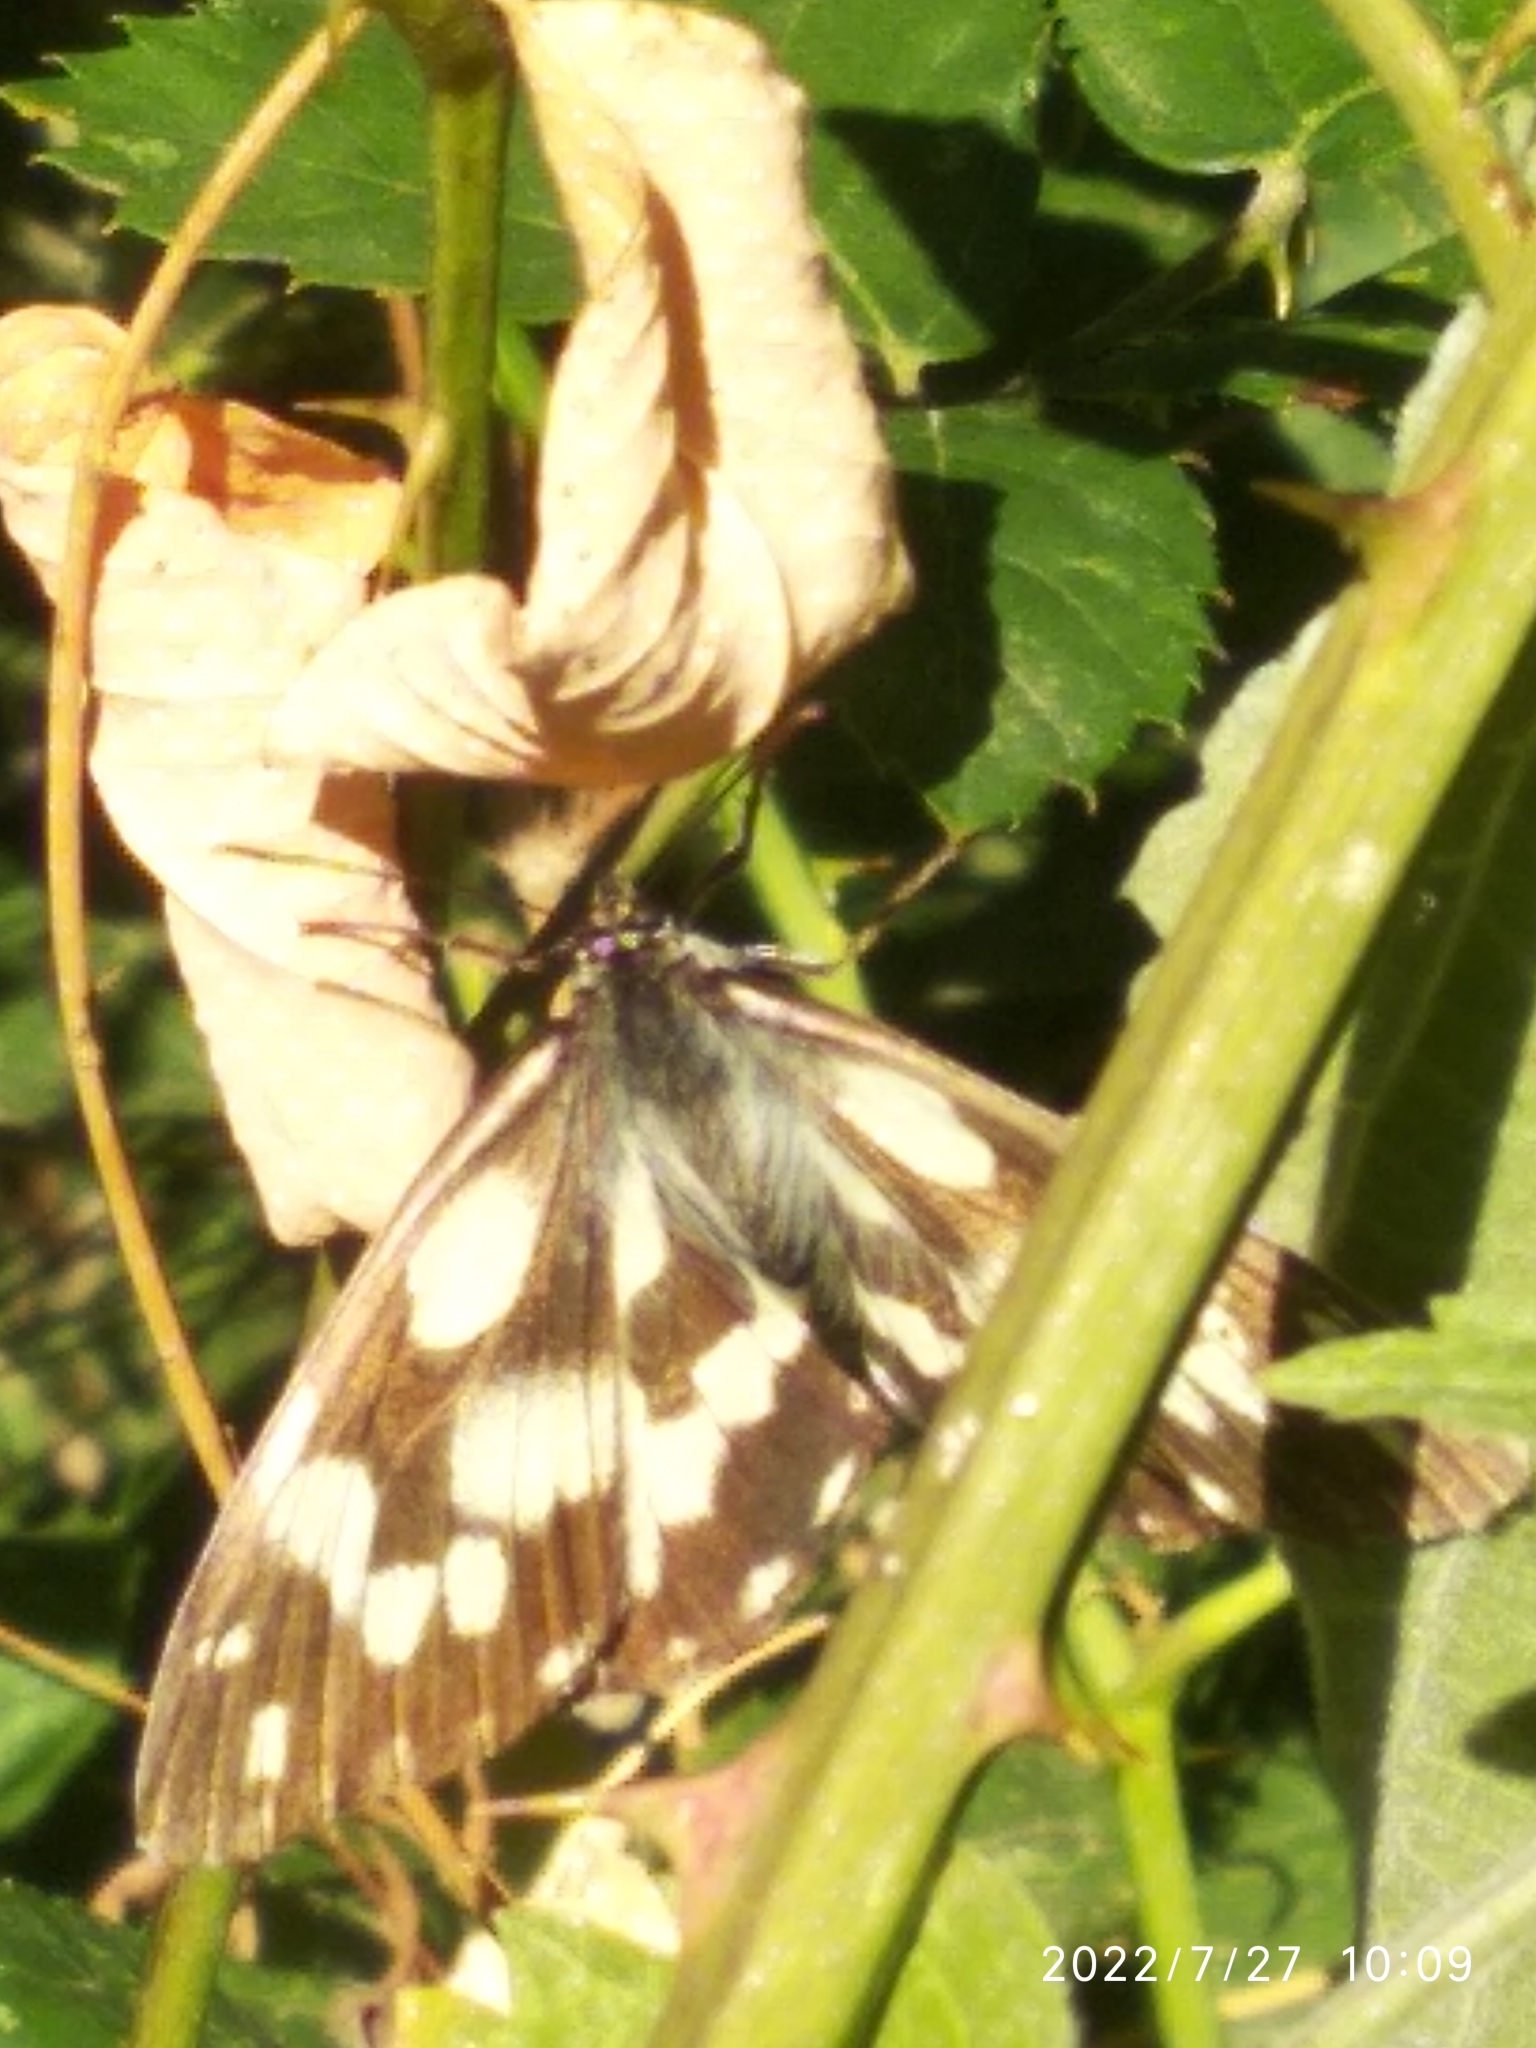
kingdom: Animalia
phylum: Arthropoda
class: Insecta
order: Lepidoptera
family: Nymphalidae
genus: Melanargia
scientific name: Melanargia galathea
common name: Marbled white
